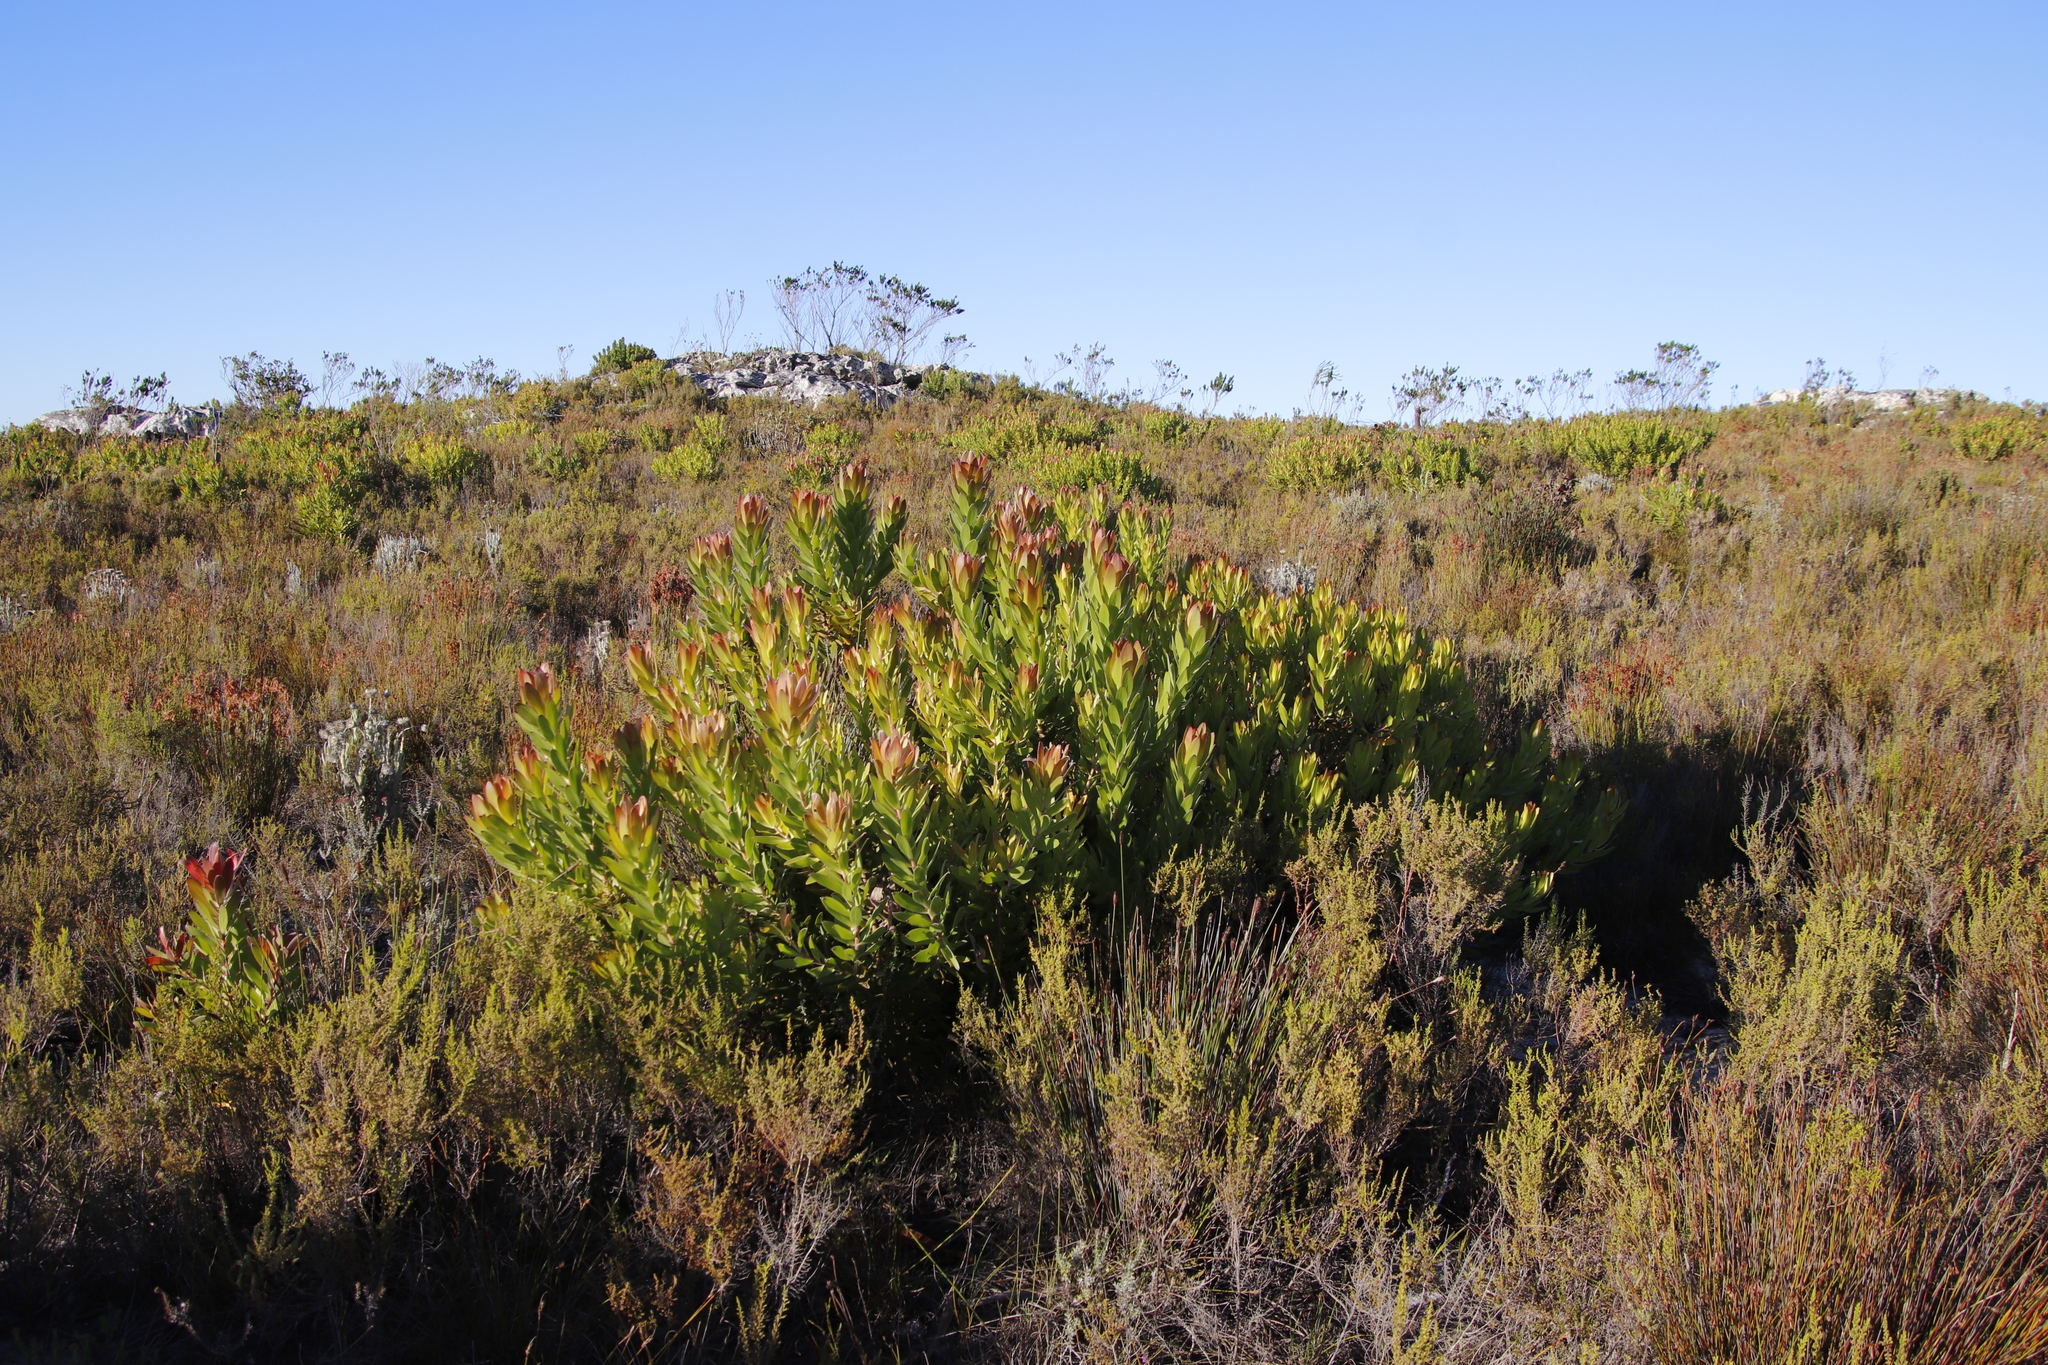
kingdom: Plantae
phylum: Tracheophyta
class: Magnoliopsida
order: Proteales
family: Proteaceae
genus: Leucadendron
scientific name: Leucadendron laureolum
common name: Golden sunshinebush
